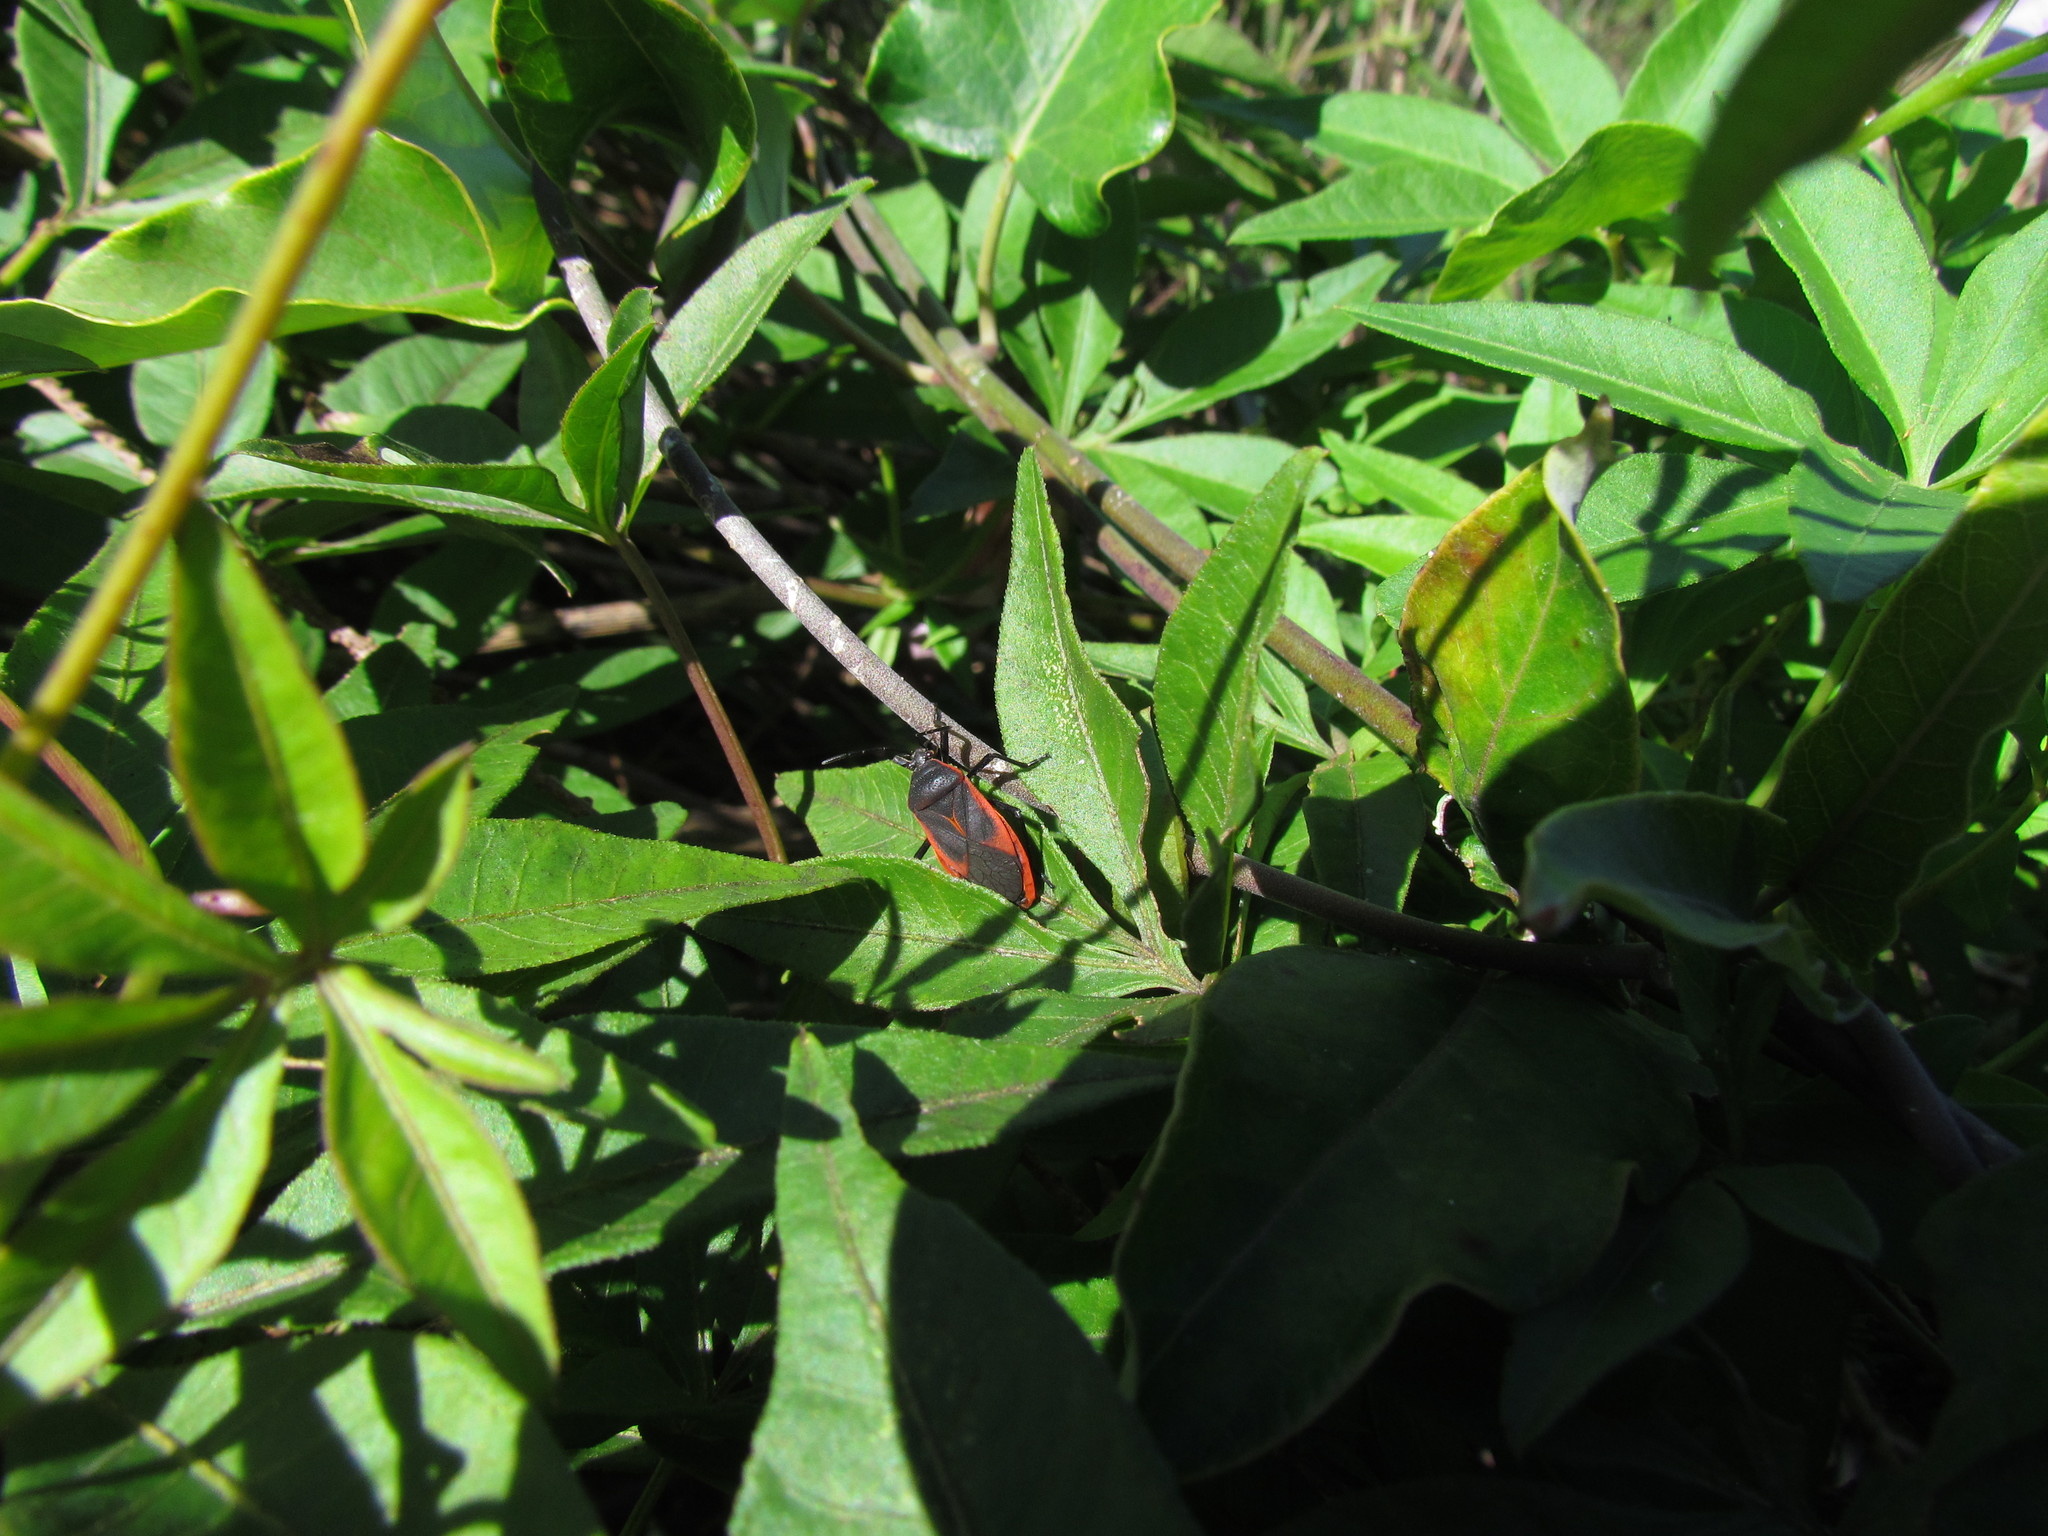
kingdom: Animalia
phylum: Arthropoda
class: Insecta
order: Hemiptera
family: Largidae
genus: Largus
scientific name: Largus rufipennis
